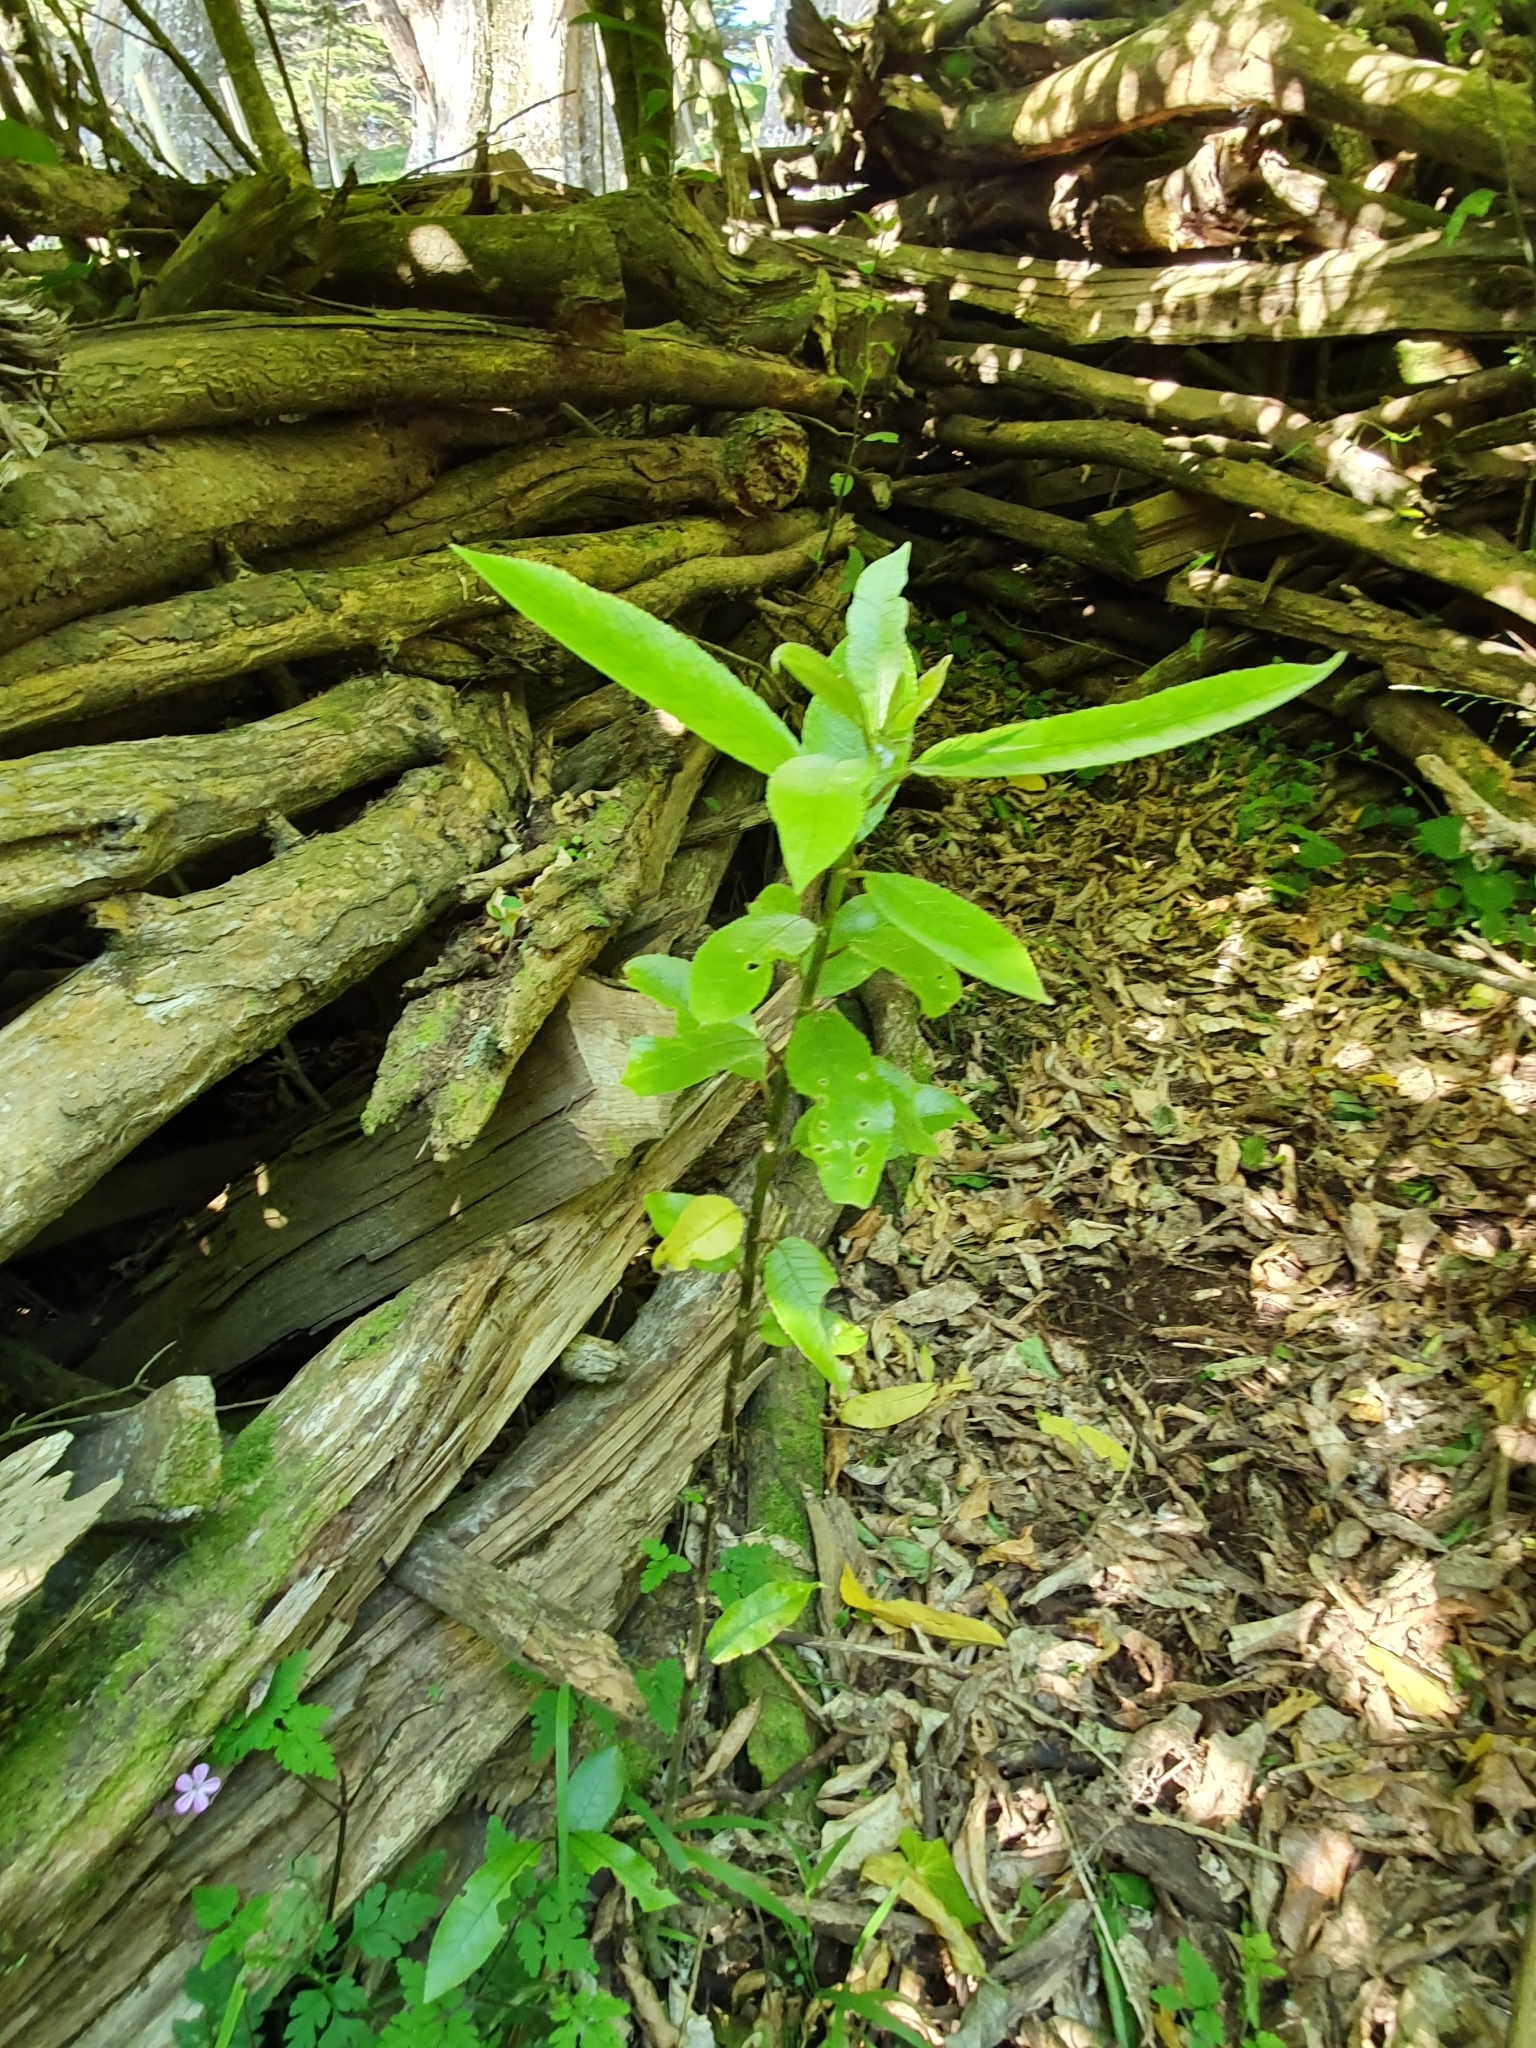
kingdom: Plantae
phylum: Tracheophyta
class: Magnoliopsida
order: Malpighiales
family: Violaceae
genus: Melicytus
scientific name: Melicytus ramiflorus
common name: Mahoe
